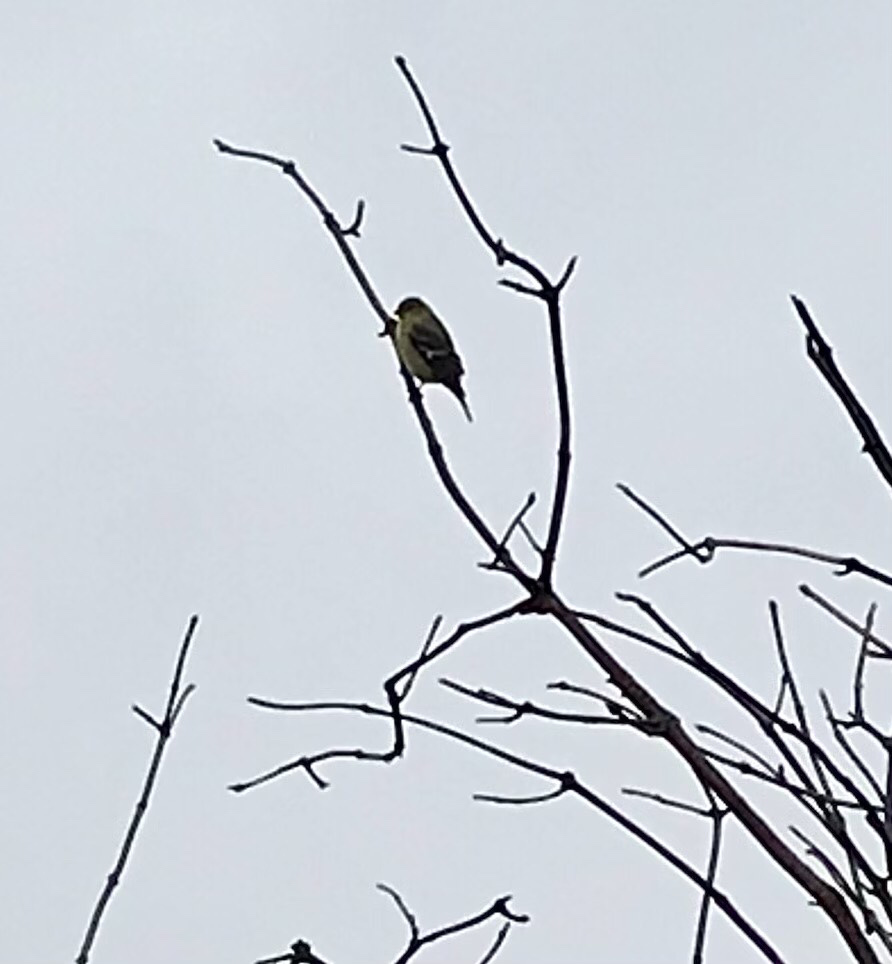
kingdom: Animalia
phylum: Chordata
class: Aves
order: Passeriformes
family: Fringillidae
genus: Spinus
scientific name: Spinus psaltria
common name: Lesser goldfinch
